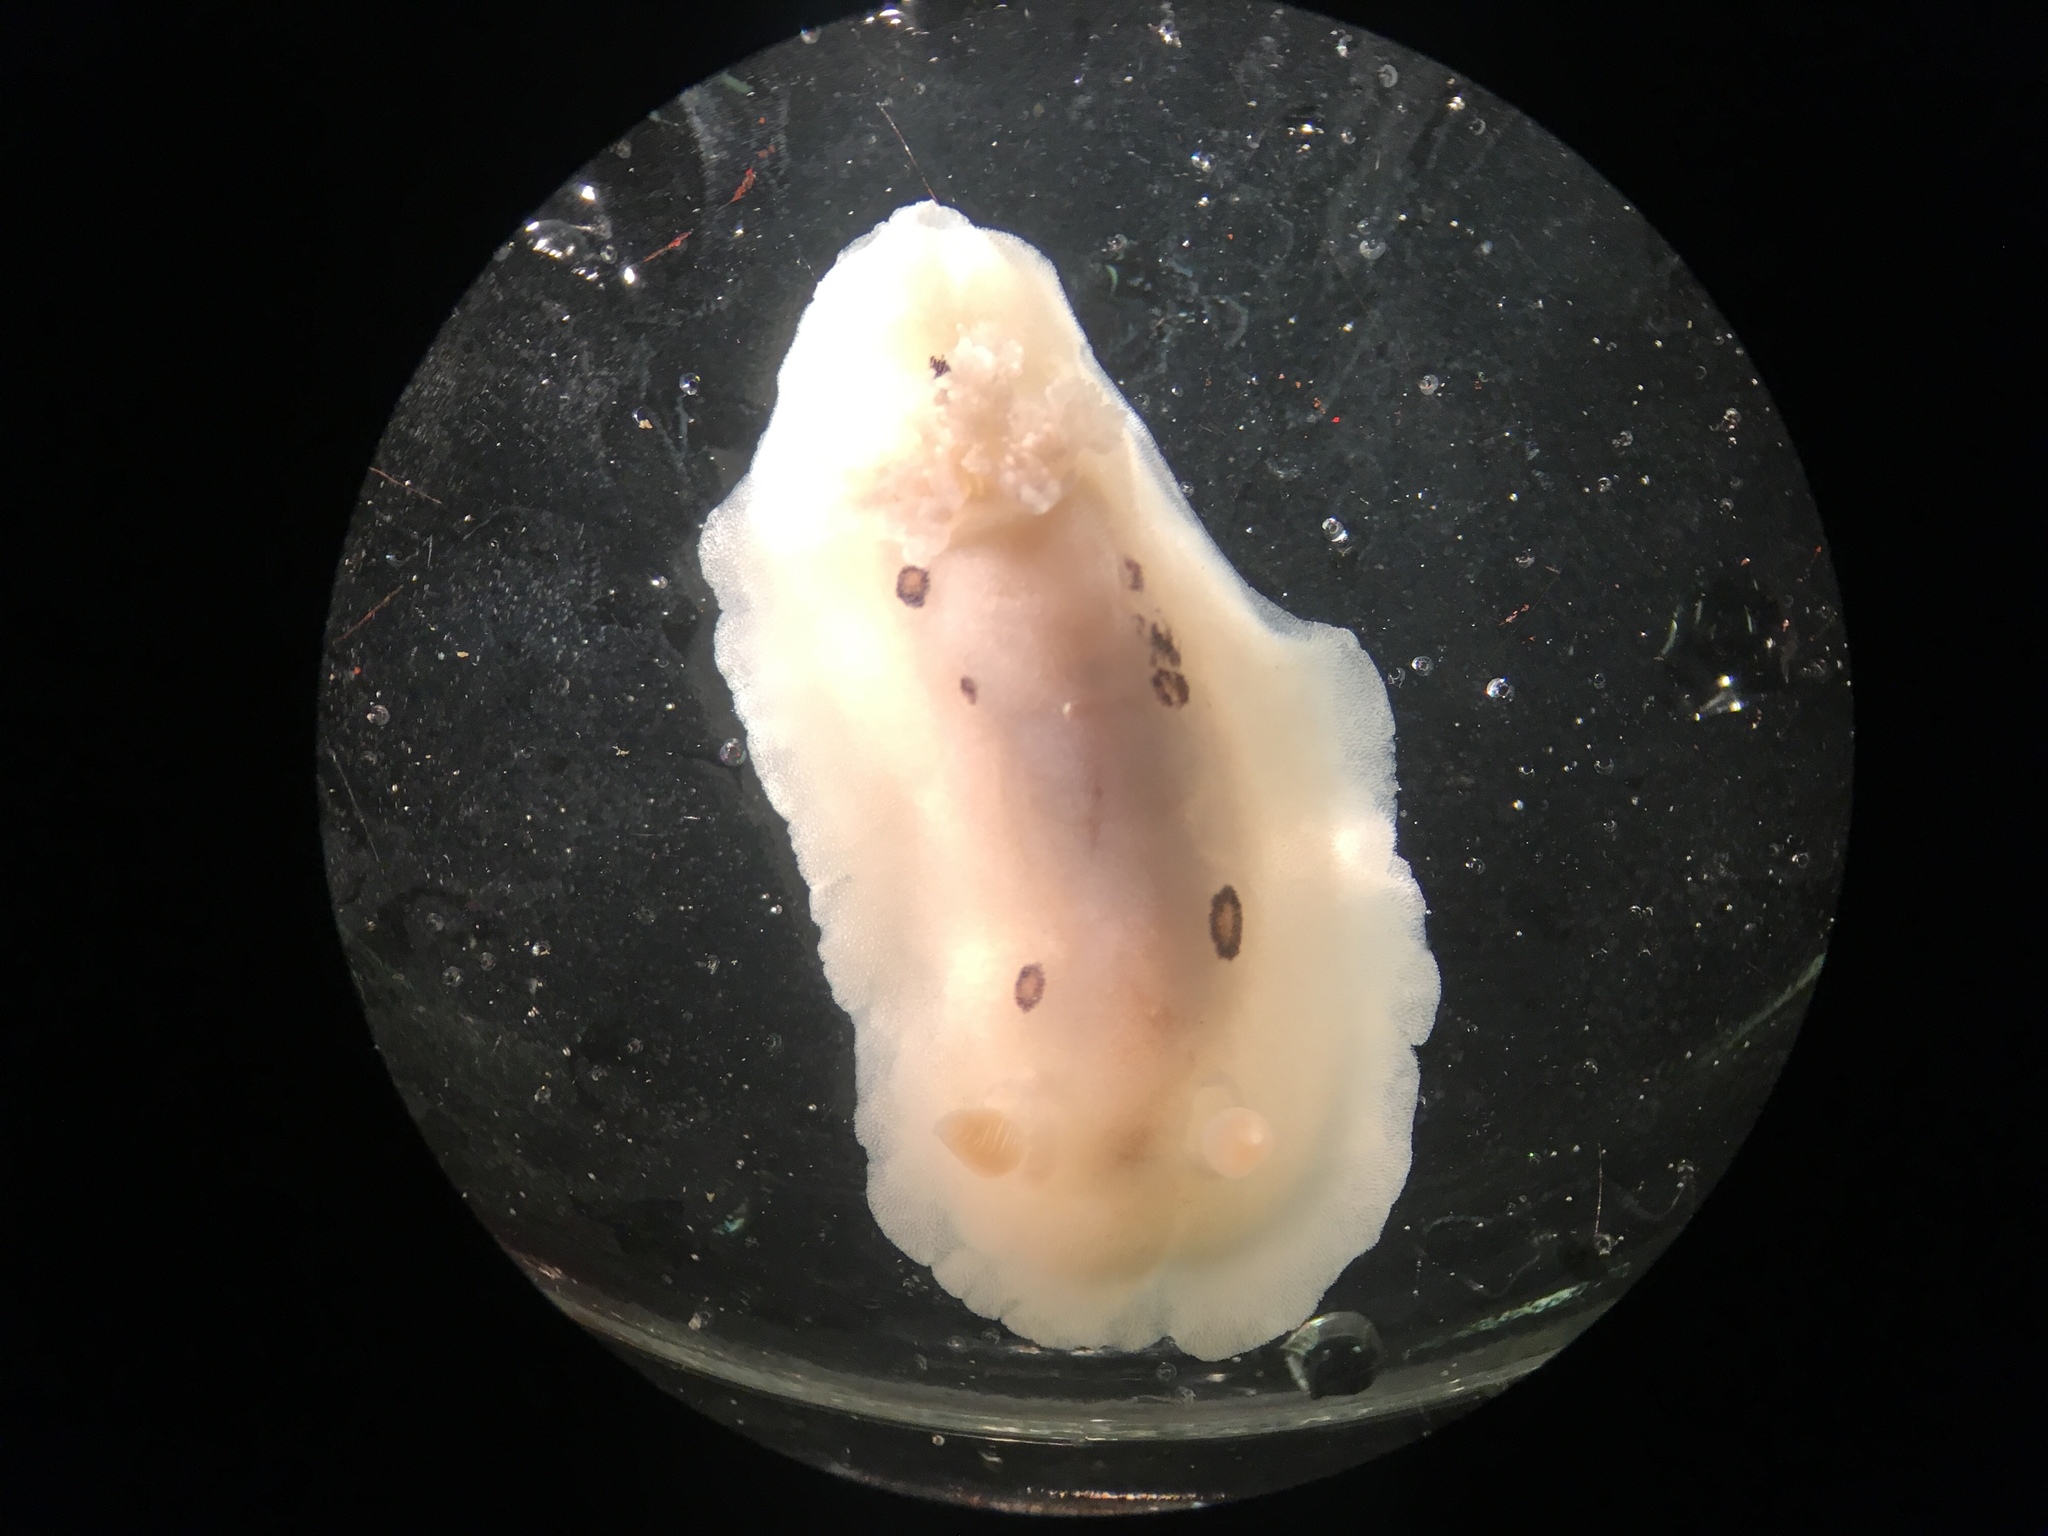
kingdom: Animalia
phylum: Mollusca
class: Gastropoda
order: Nudibranchia
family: Discodorididae
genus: Diaulula
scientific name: Diaulula sandiegensis
